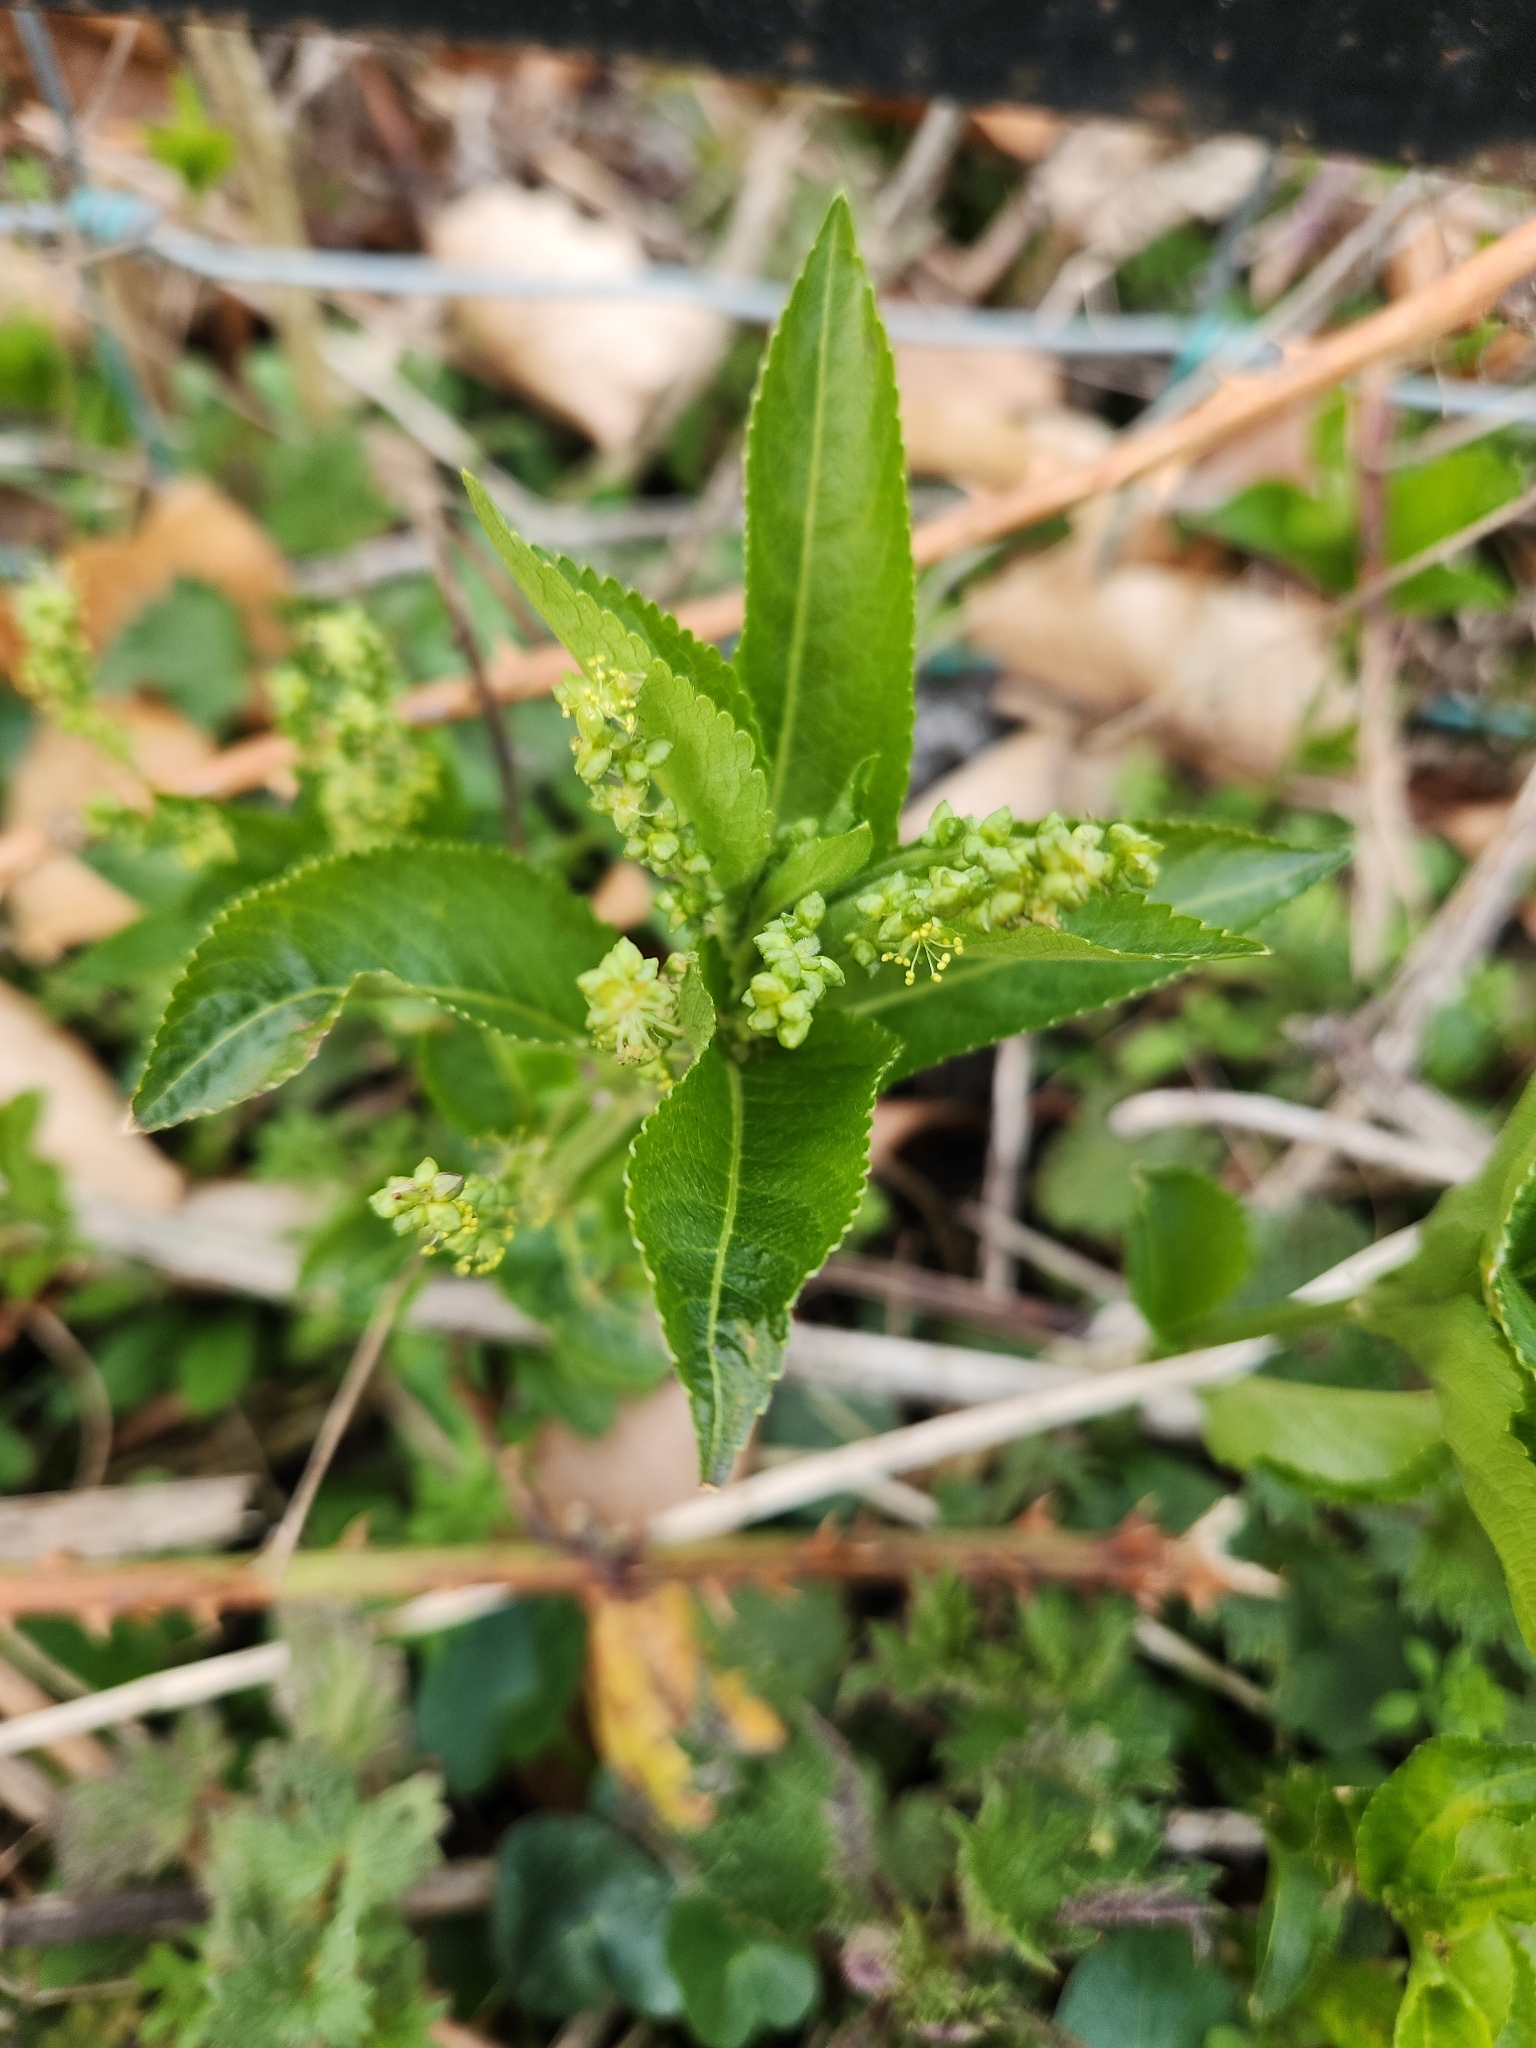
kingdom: Plantae
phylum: Tracheophyta
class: Magnoliopsida
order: Malpighiales
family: Euphorbiaceae
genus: Mercurialis
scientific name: Mercurialis perennis
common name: Dog mercury
